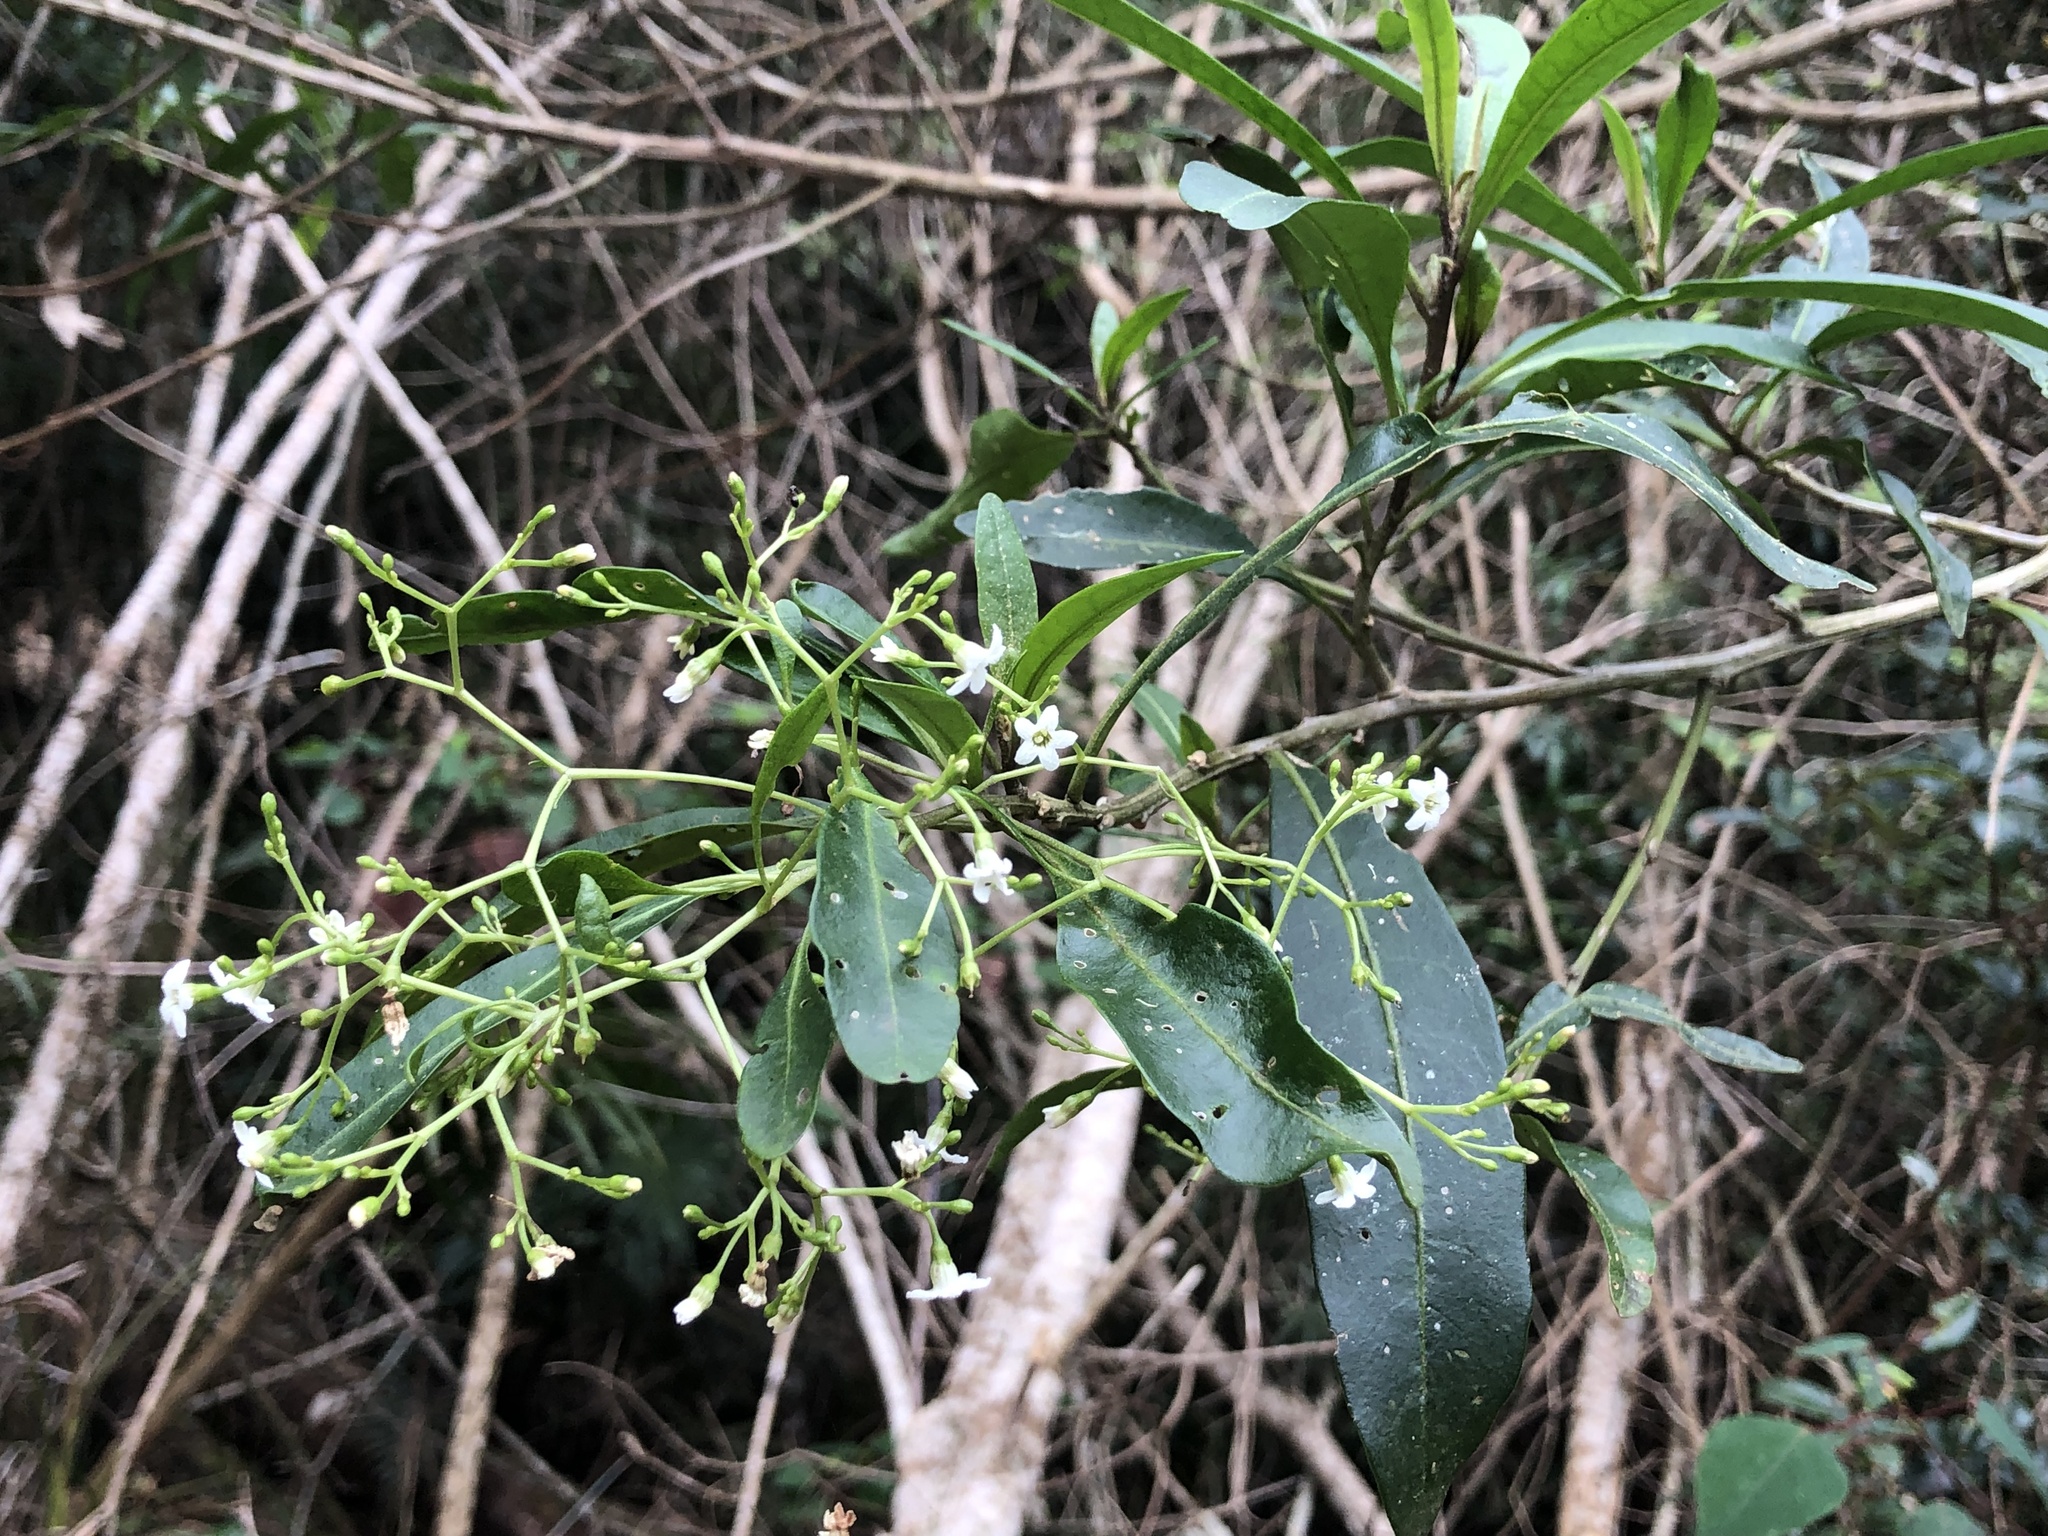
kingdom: Plantae
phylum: Tracheophyta
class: Magnoliopsida
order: Solanales
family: Solanaceae
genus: Duboisia
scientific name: Duboisia myoporoides
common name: Corkwoodtree
